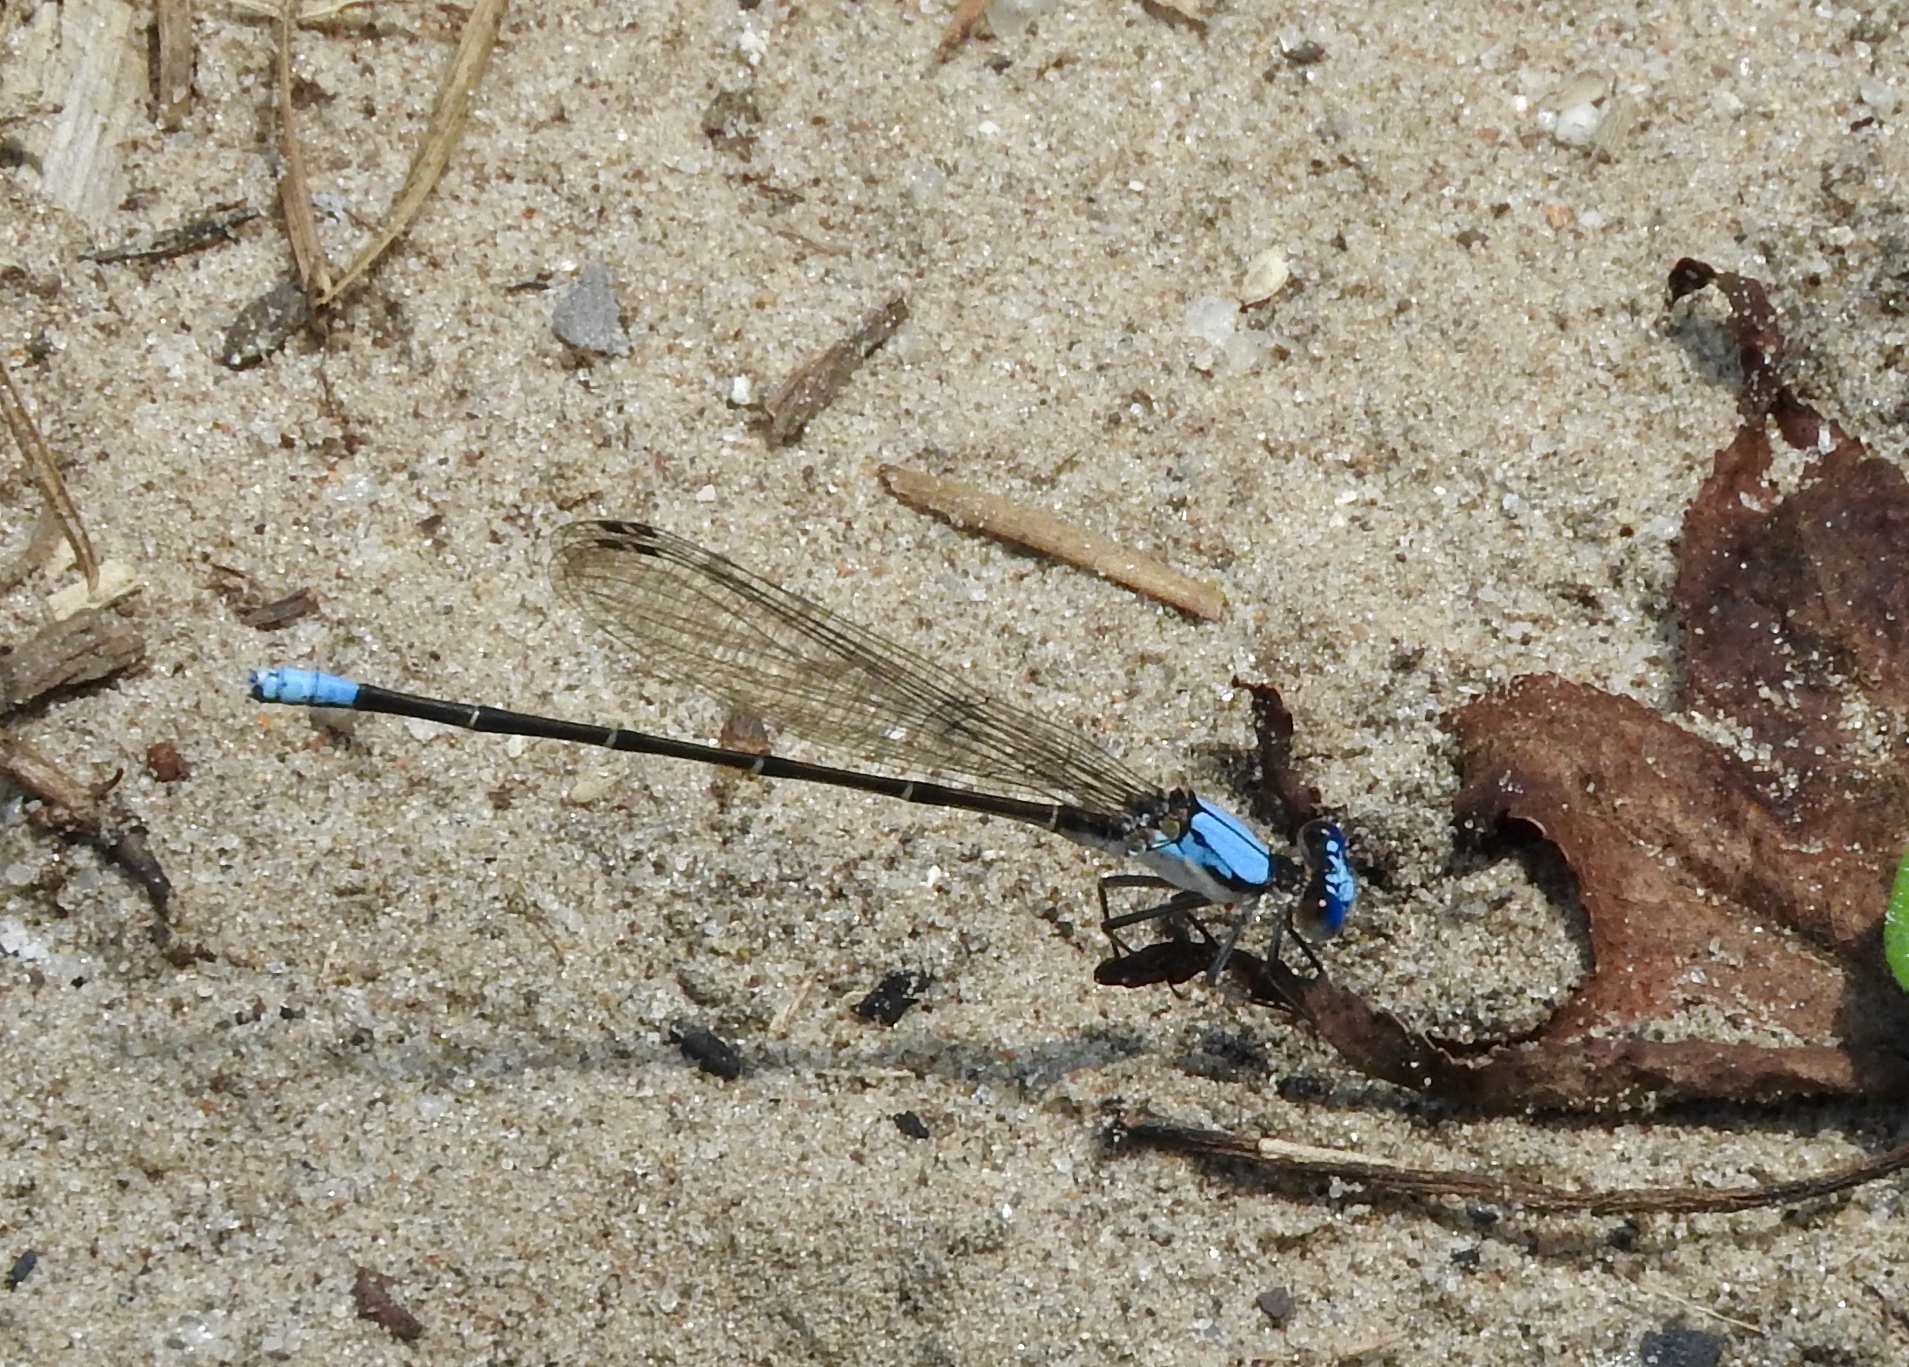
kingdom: Animalia
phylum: Arthropoda
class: Insecta
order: Odonata
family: Coenagrionidae
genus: Argia
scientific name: Argia apicalis
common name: Blue-fronted dancer
